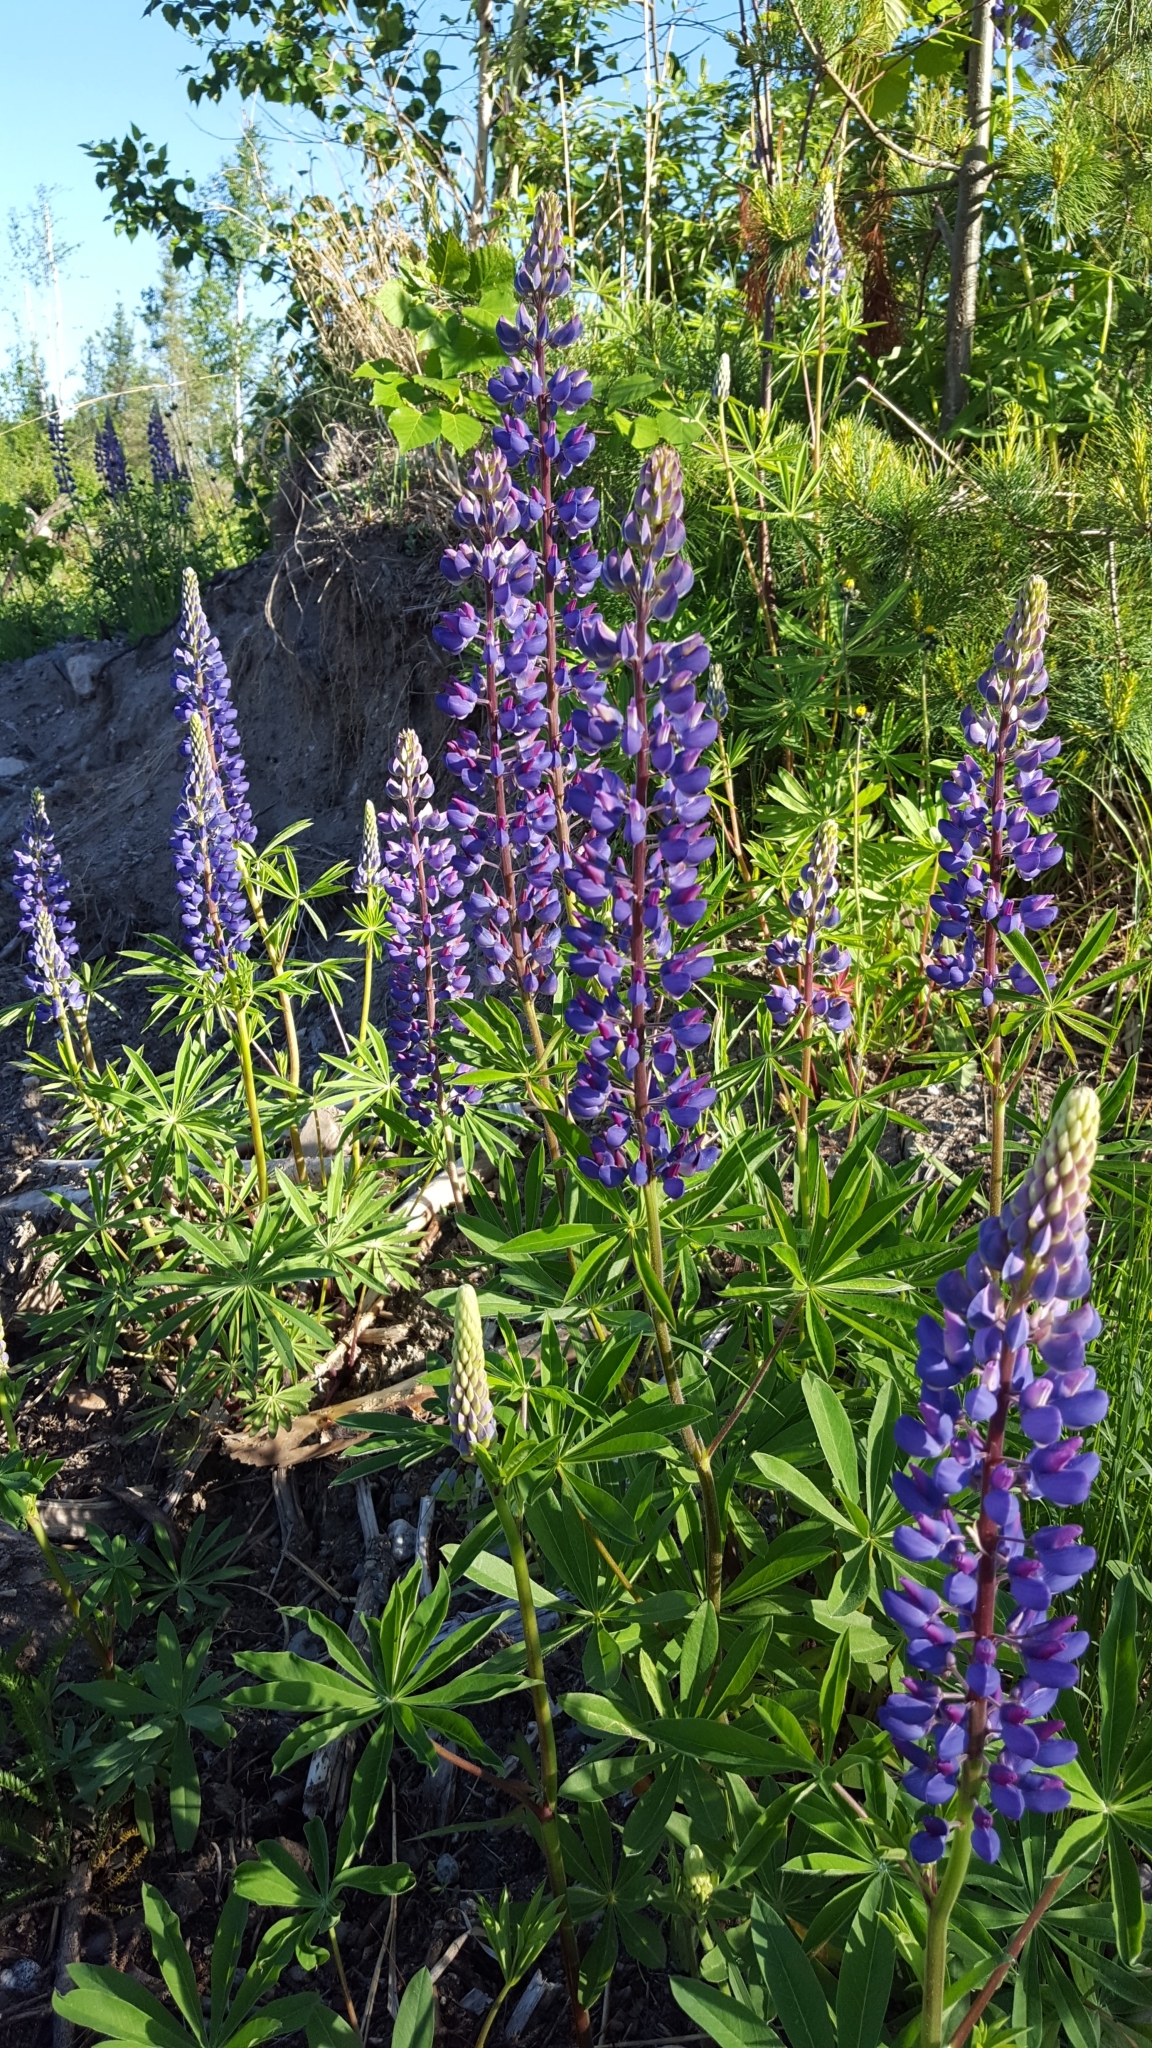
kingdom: Plantae
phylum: Tracheophyta
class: Magnoliopsida
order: Fabales
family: Fabaceae
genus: Lupinus
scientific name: Lupinus polyphyllus
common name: Garden lupin
